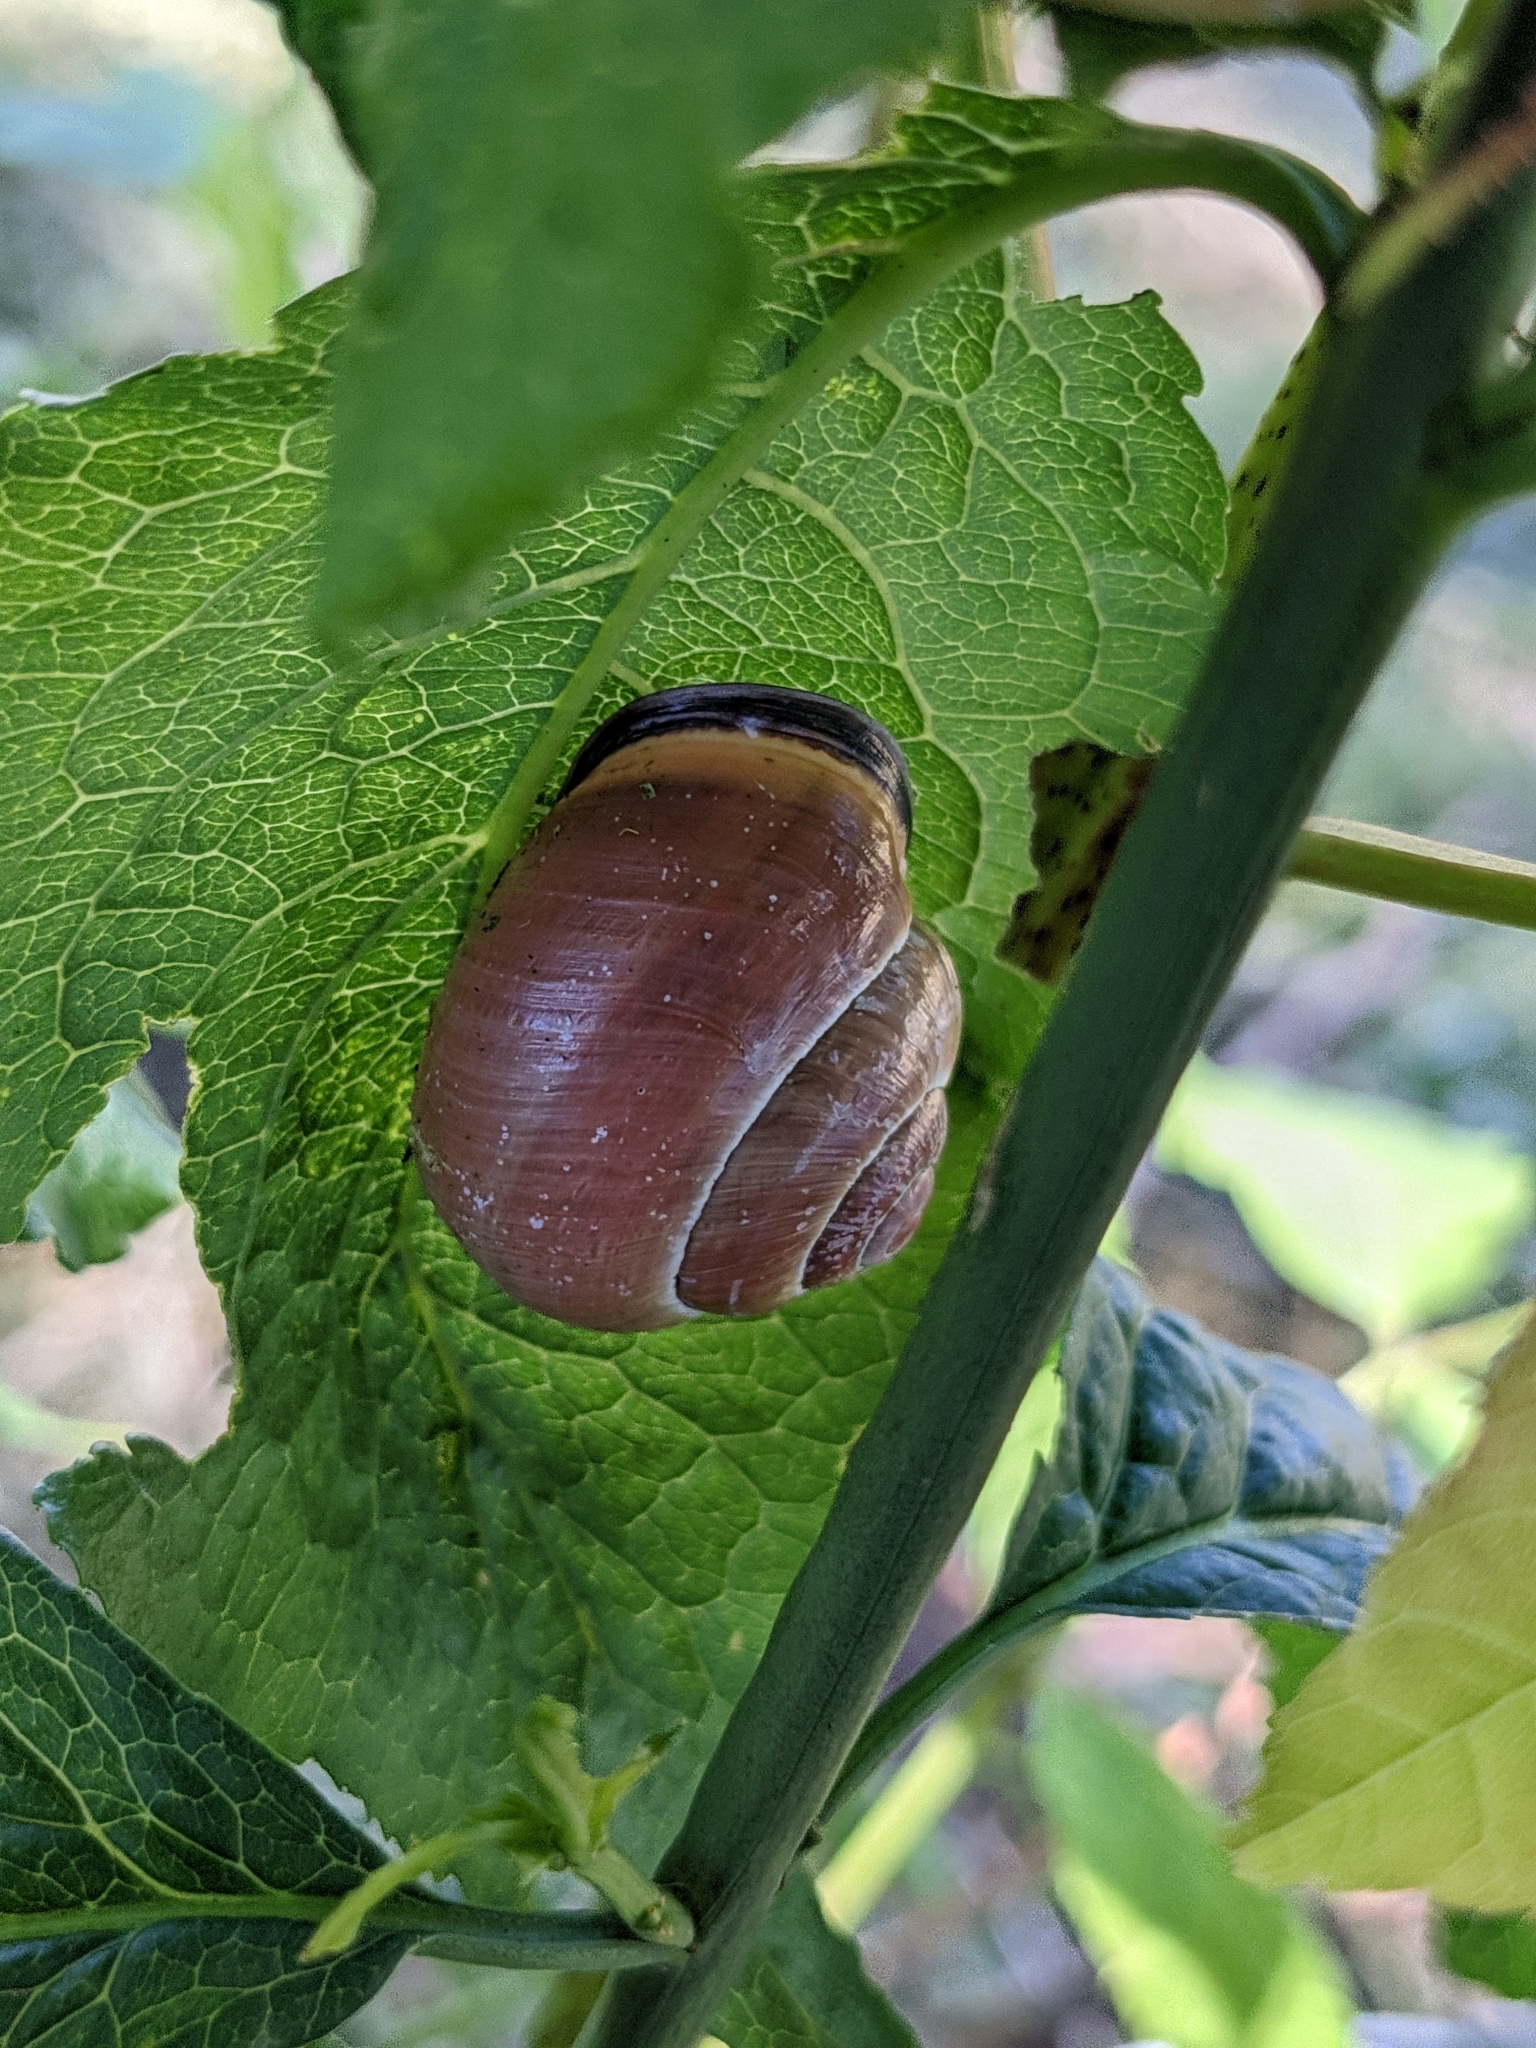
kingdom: Animalia
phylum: Mollusca
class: Gastropoda
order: Stylommatophora
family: Helicidae
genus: Cepaea
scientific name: Cepaea nemoralis
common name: Grovesnail
